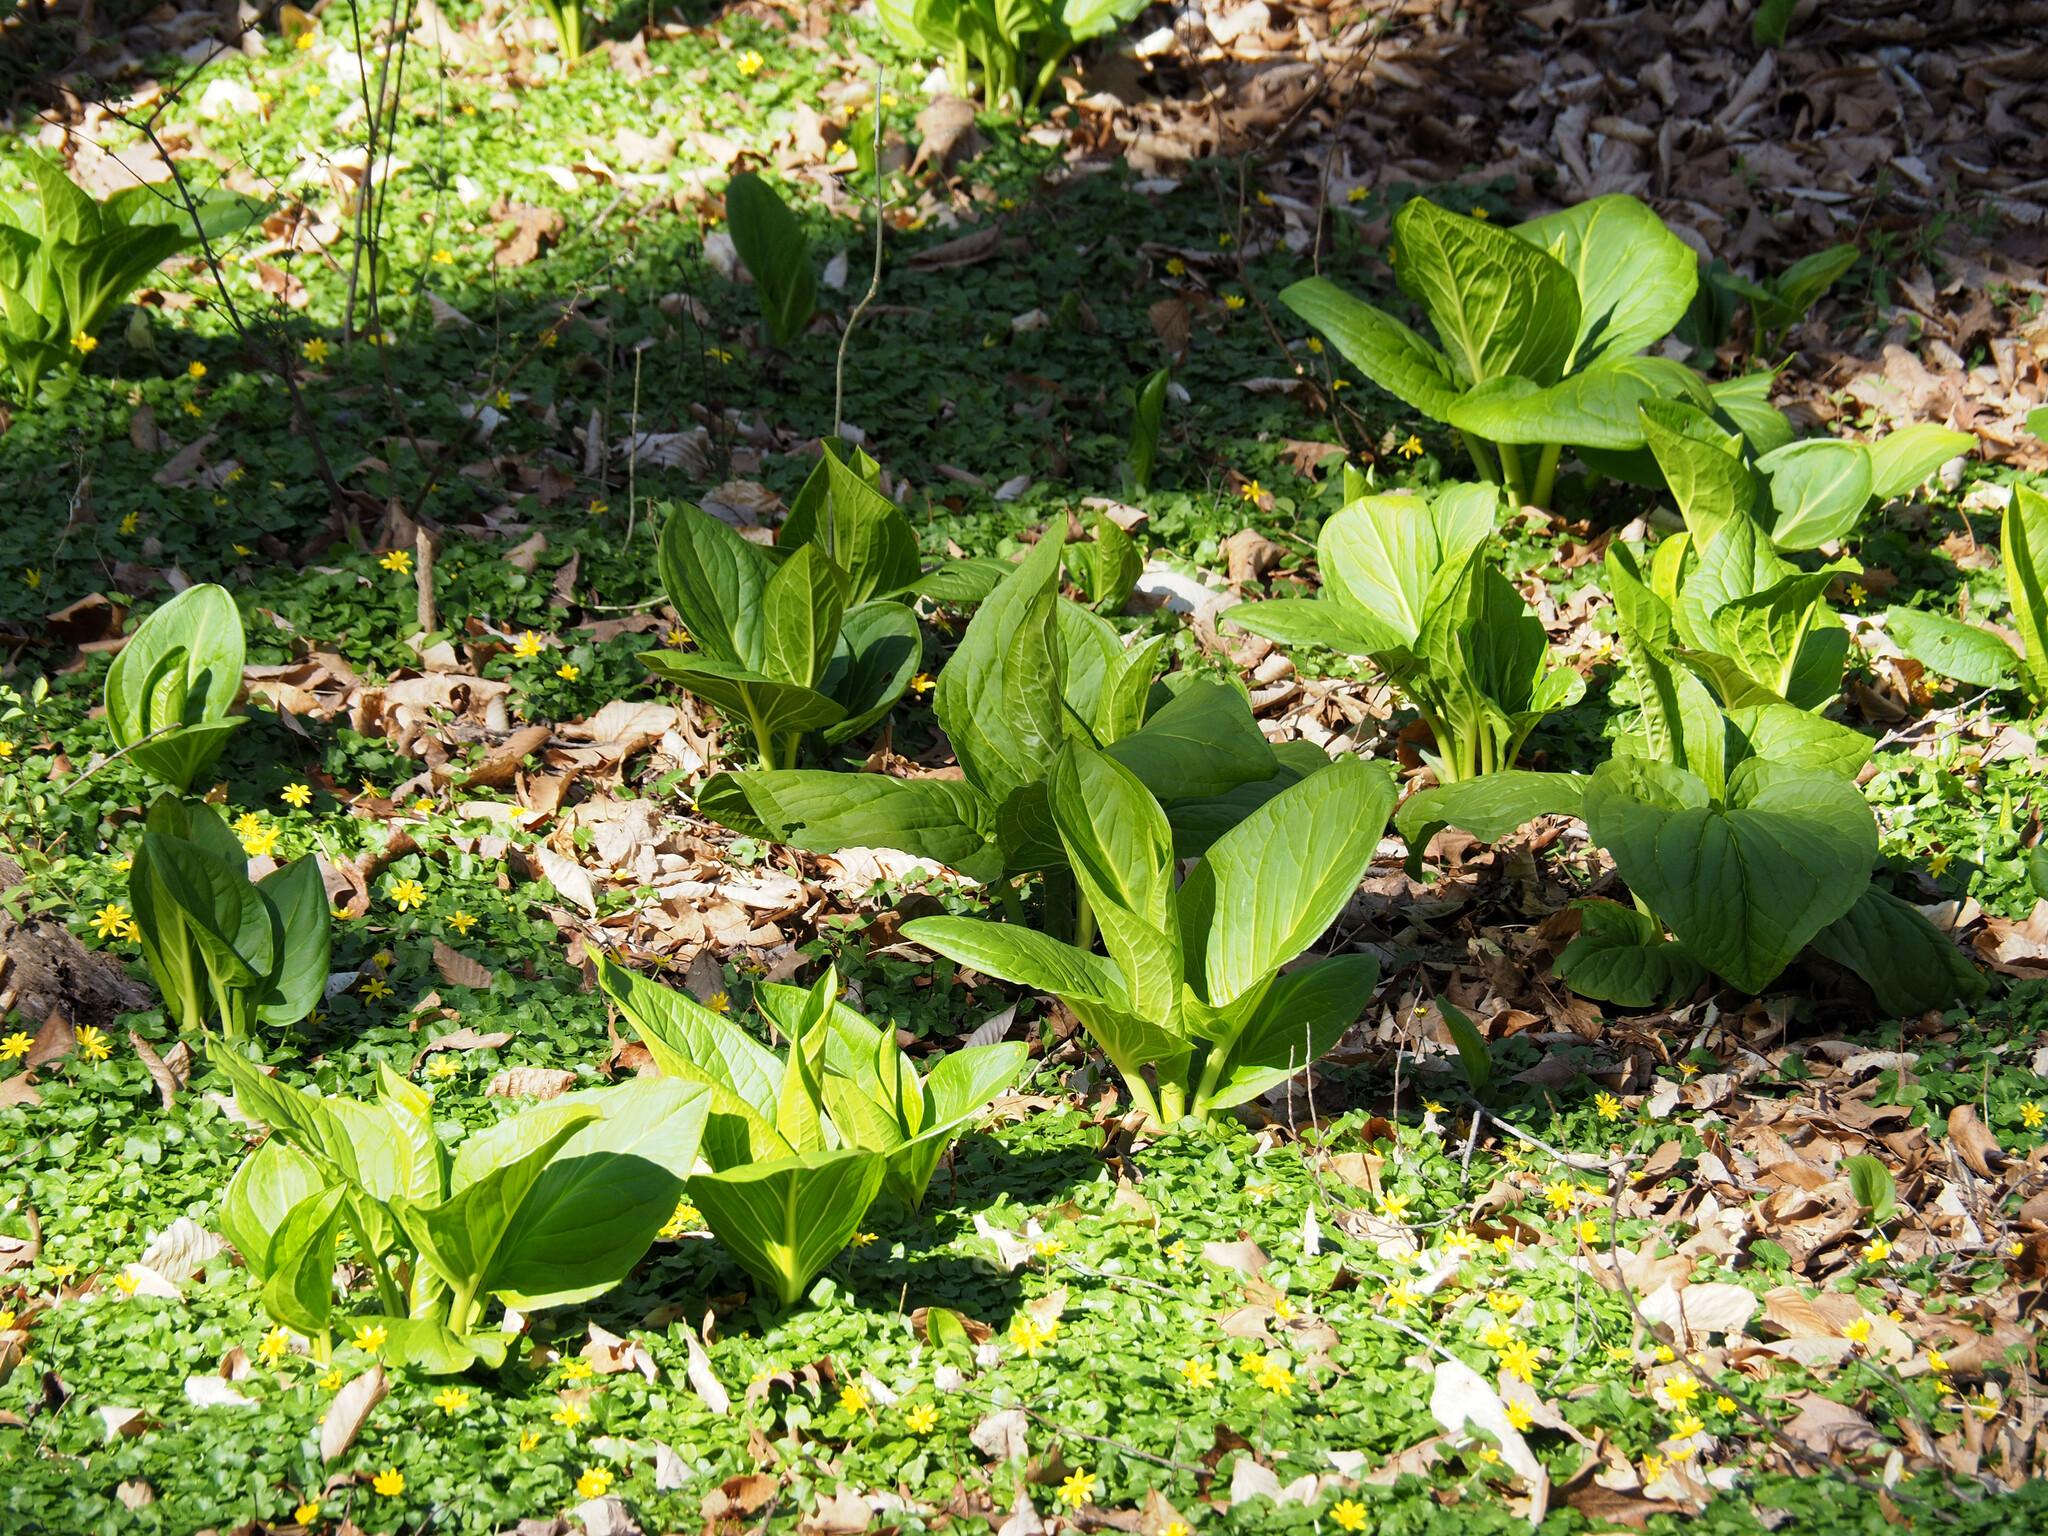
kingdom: Plantae
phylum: Tracheophyta
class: Liliopsida
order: Alismatales
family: Araceae
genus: Symplocarpus
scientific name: Symplocarpus foetidus
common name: Eastern skunk cabbage
